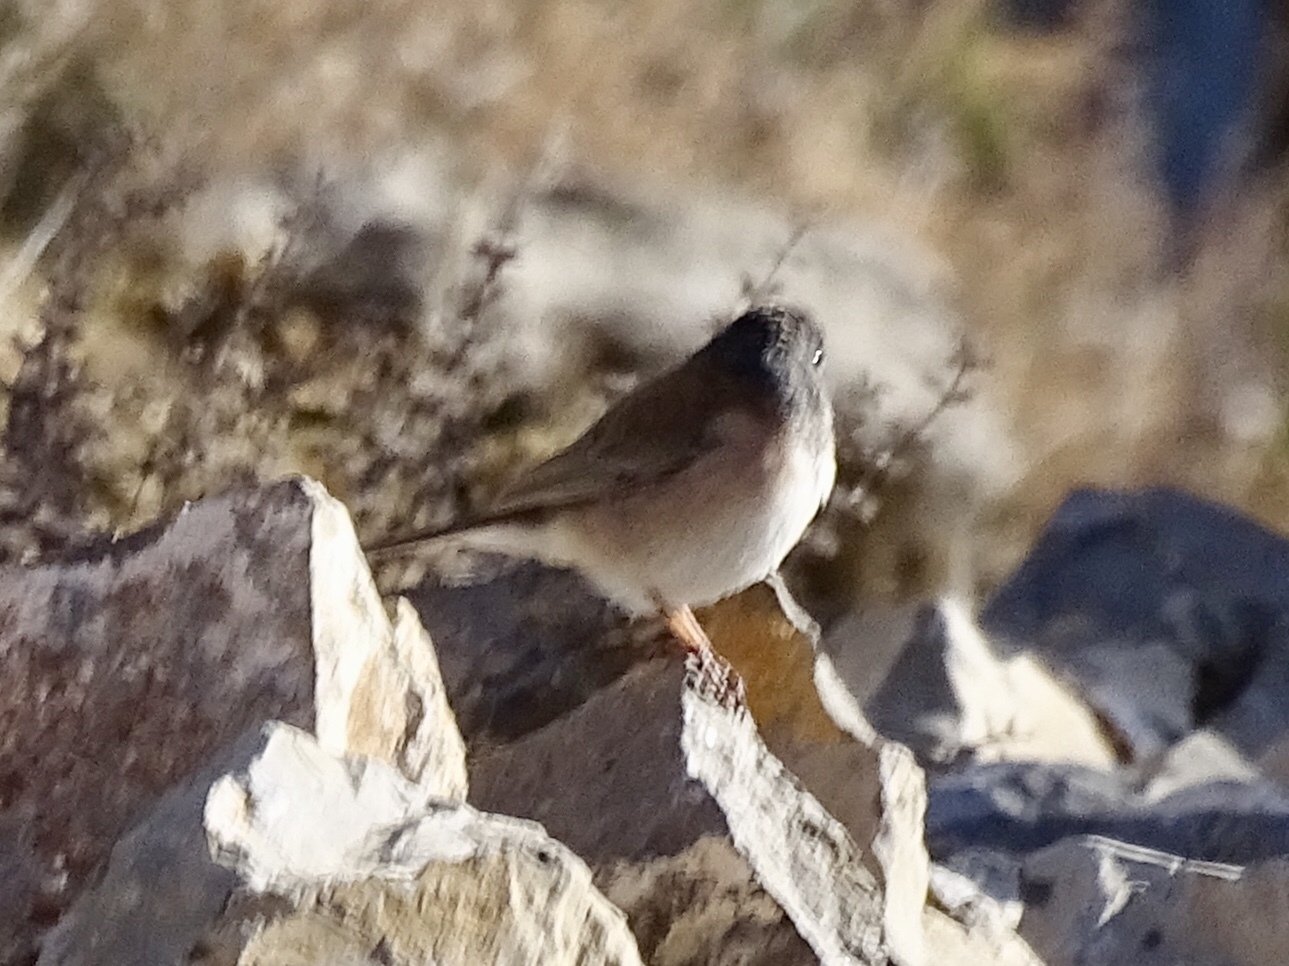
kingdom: Animalia
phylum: Chordata
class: Aves
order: Passeriformes
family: Passerellidae
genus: Junco
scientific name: Junco hyemalis
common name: Dark-eyed junco
